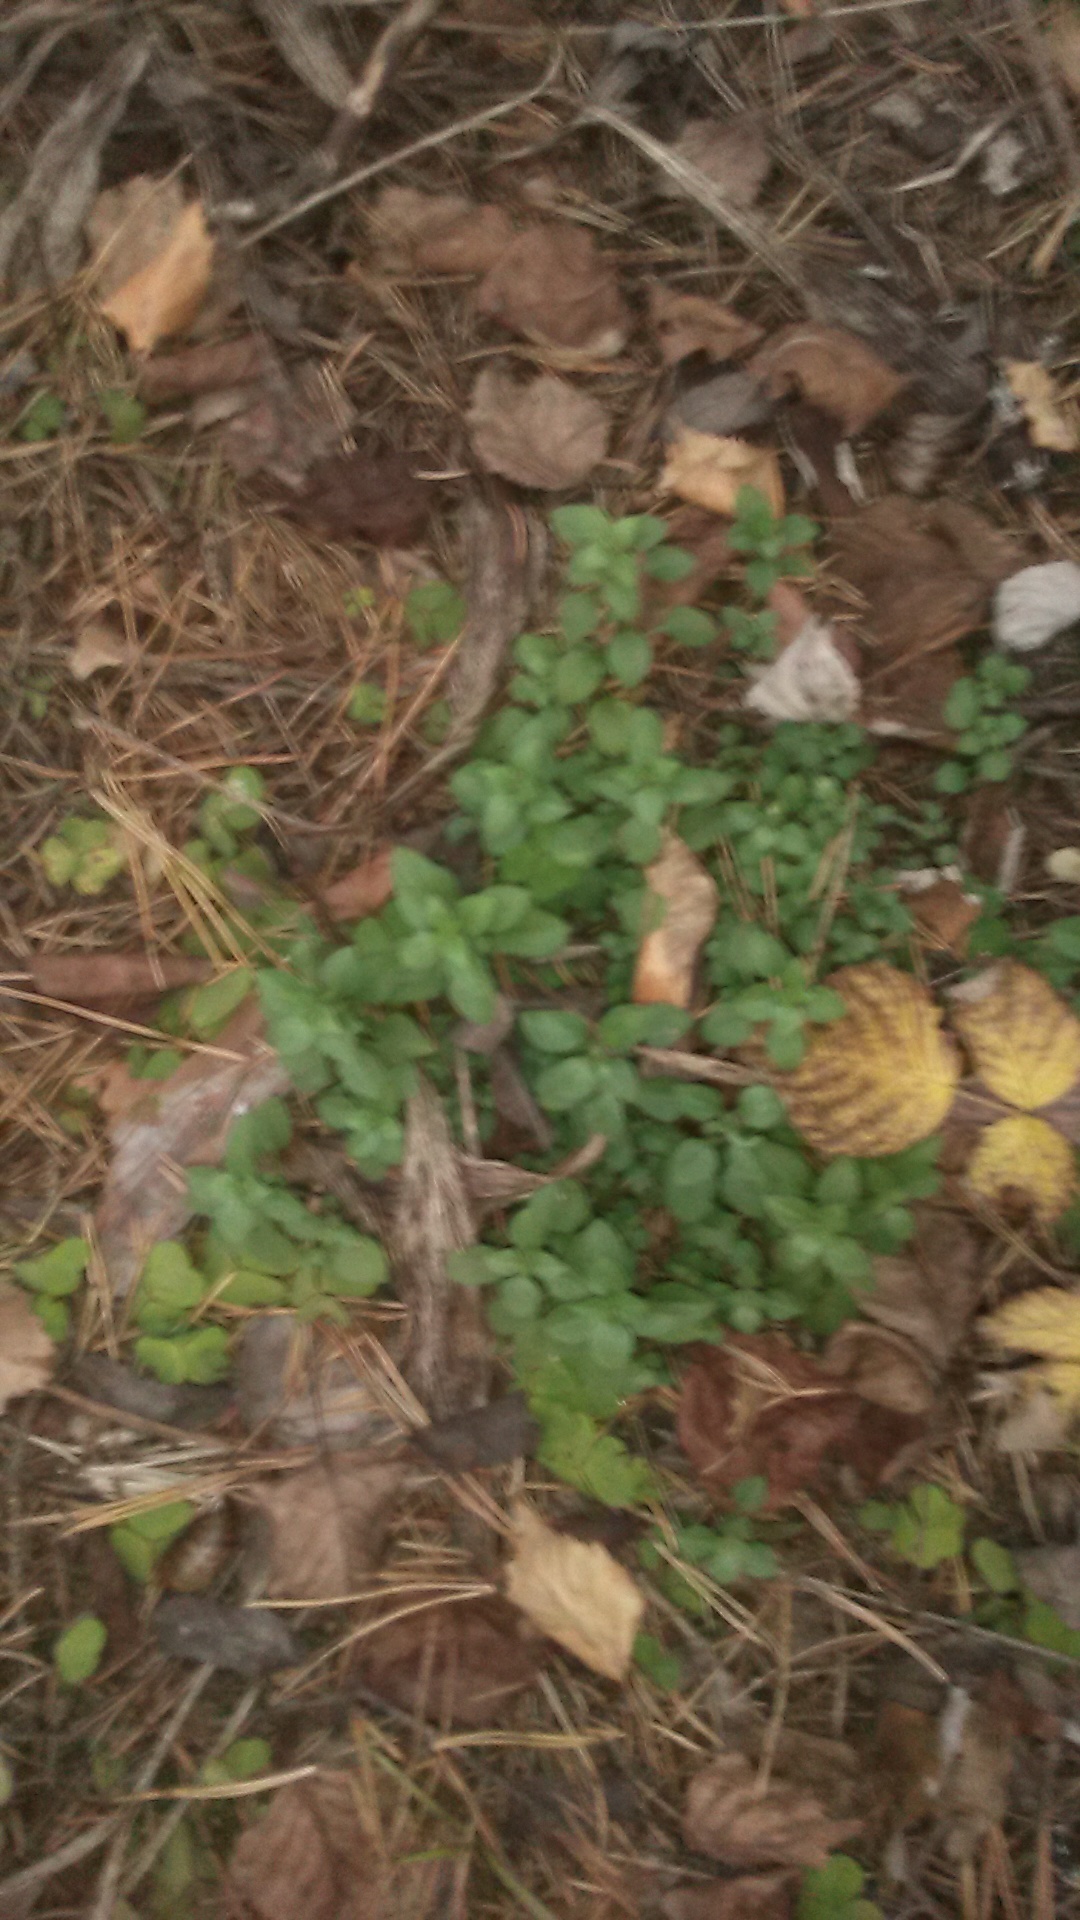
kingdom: Plantae
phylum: Tracheophyta
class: Magnoliopsida
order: Caryophyllales
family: Caryophyllaceae
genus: Moehringia
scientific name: Moehringia trinervia
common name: Three-nerved sandwort
